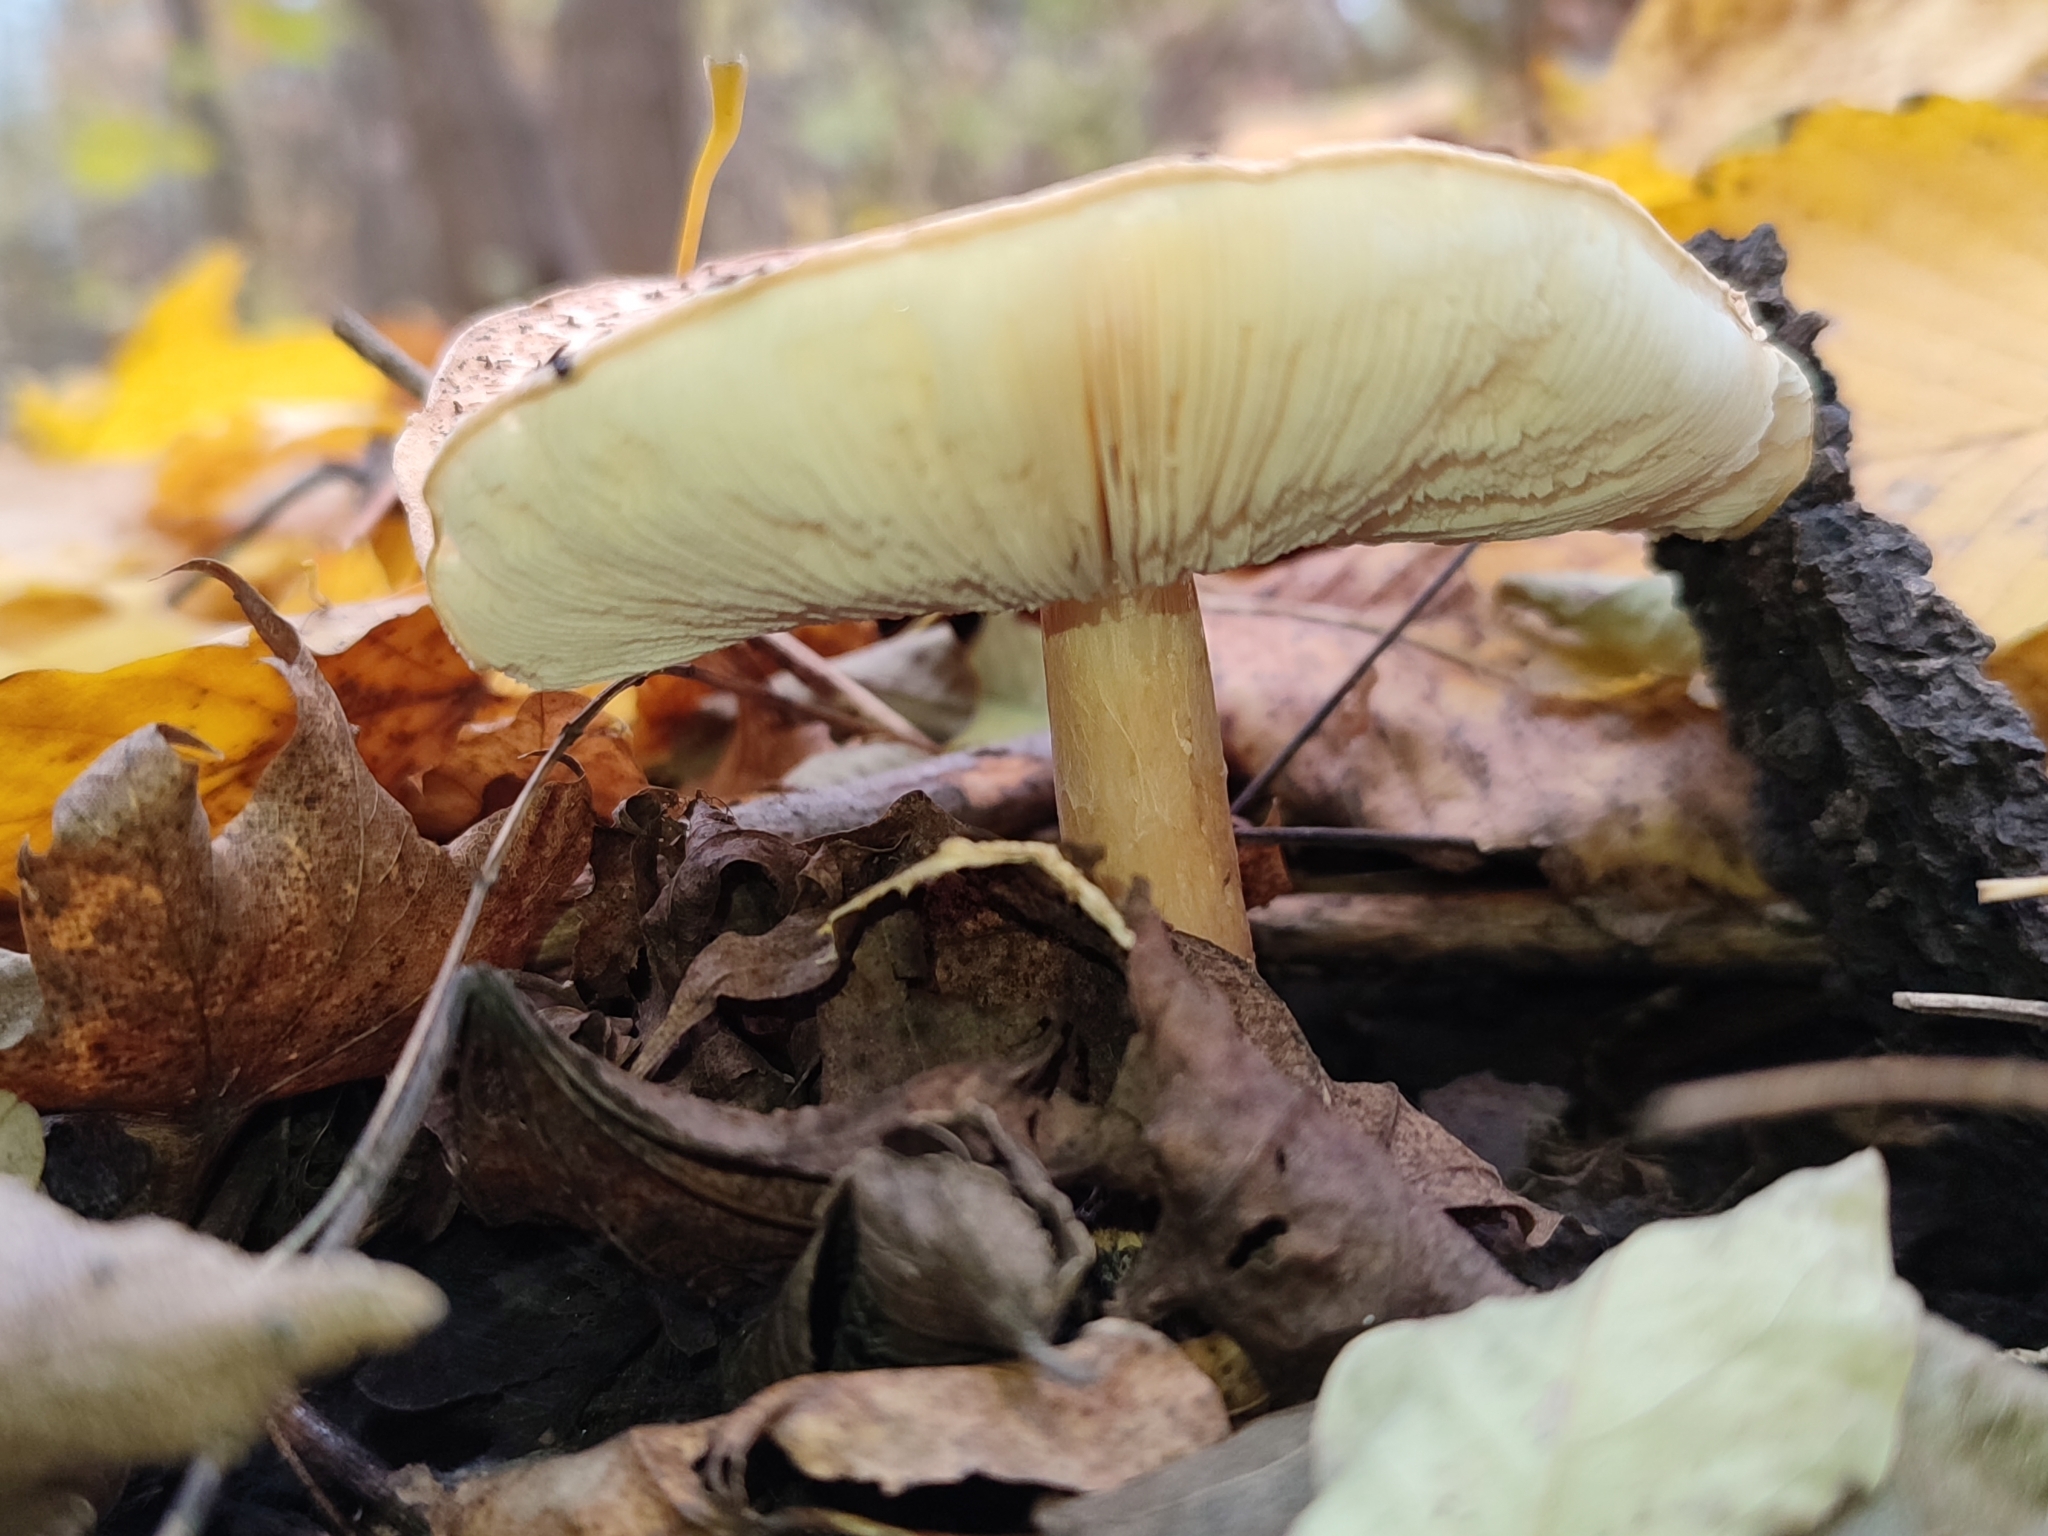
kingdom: Fungi
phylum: Basidiomycota
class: Agaricomycetes
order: Agaricales
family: Agaricaceae
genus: Echinoderma
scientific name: Echinoderma asperum
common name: Freckled dapperling
